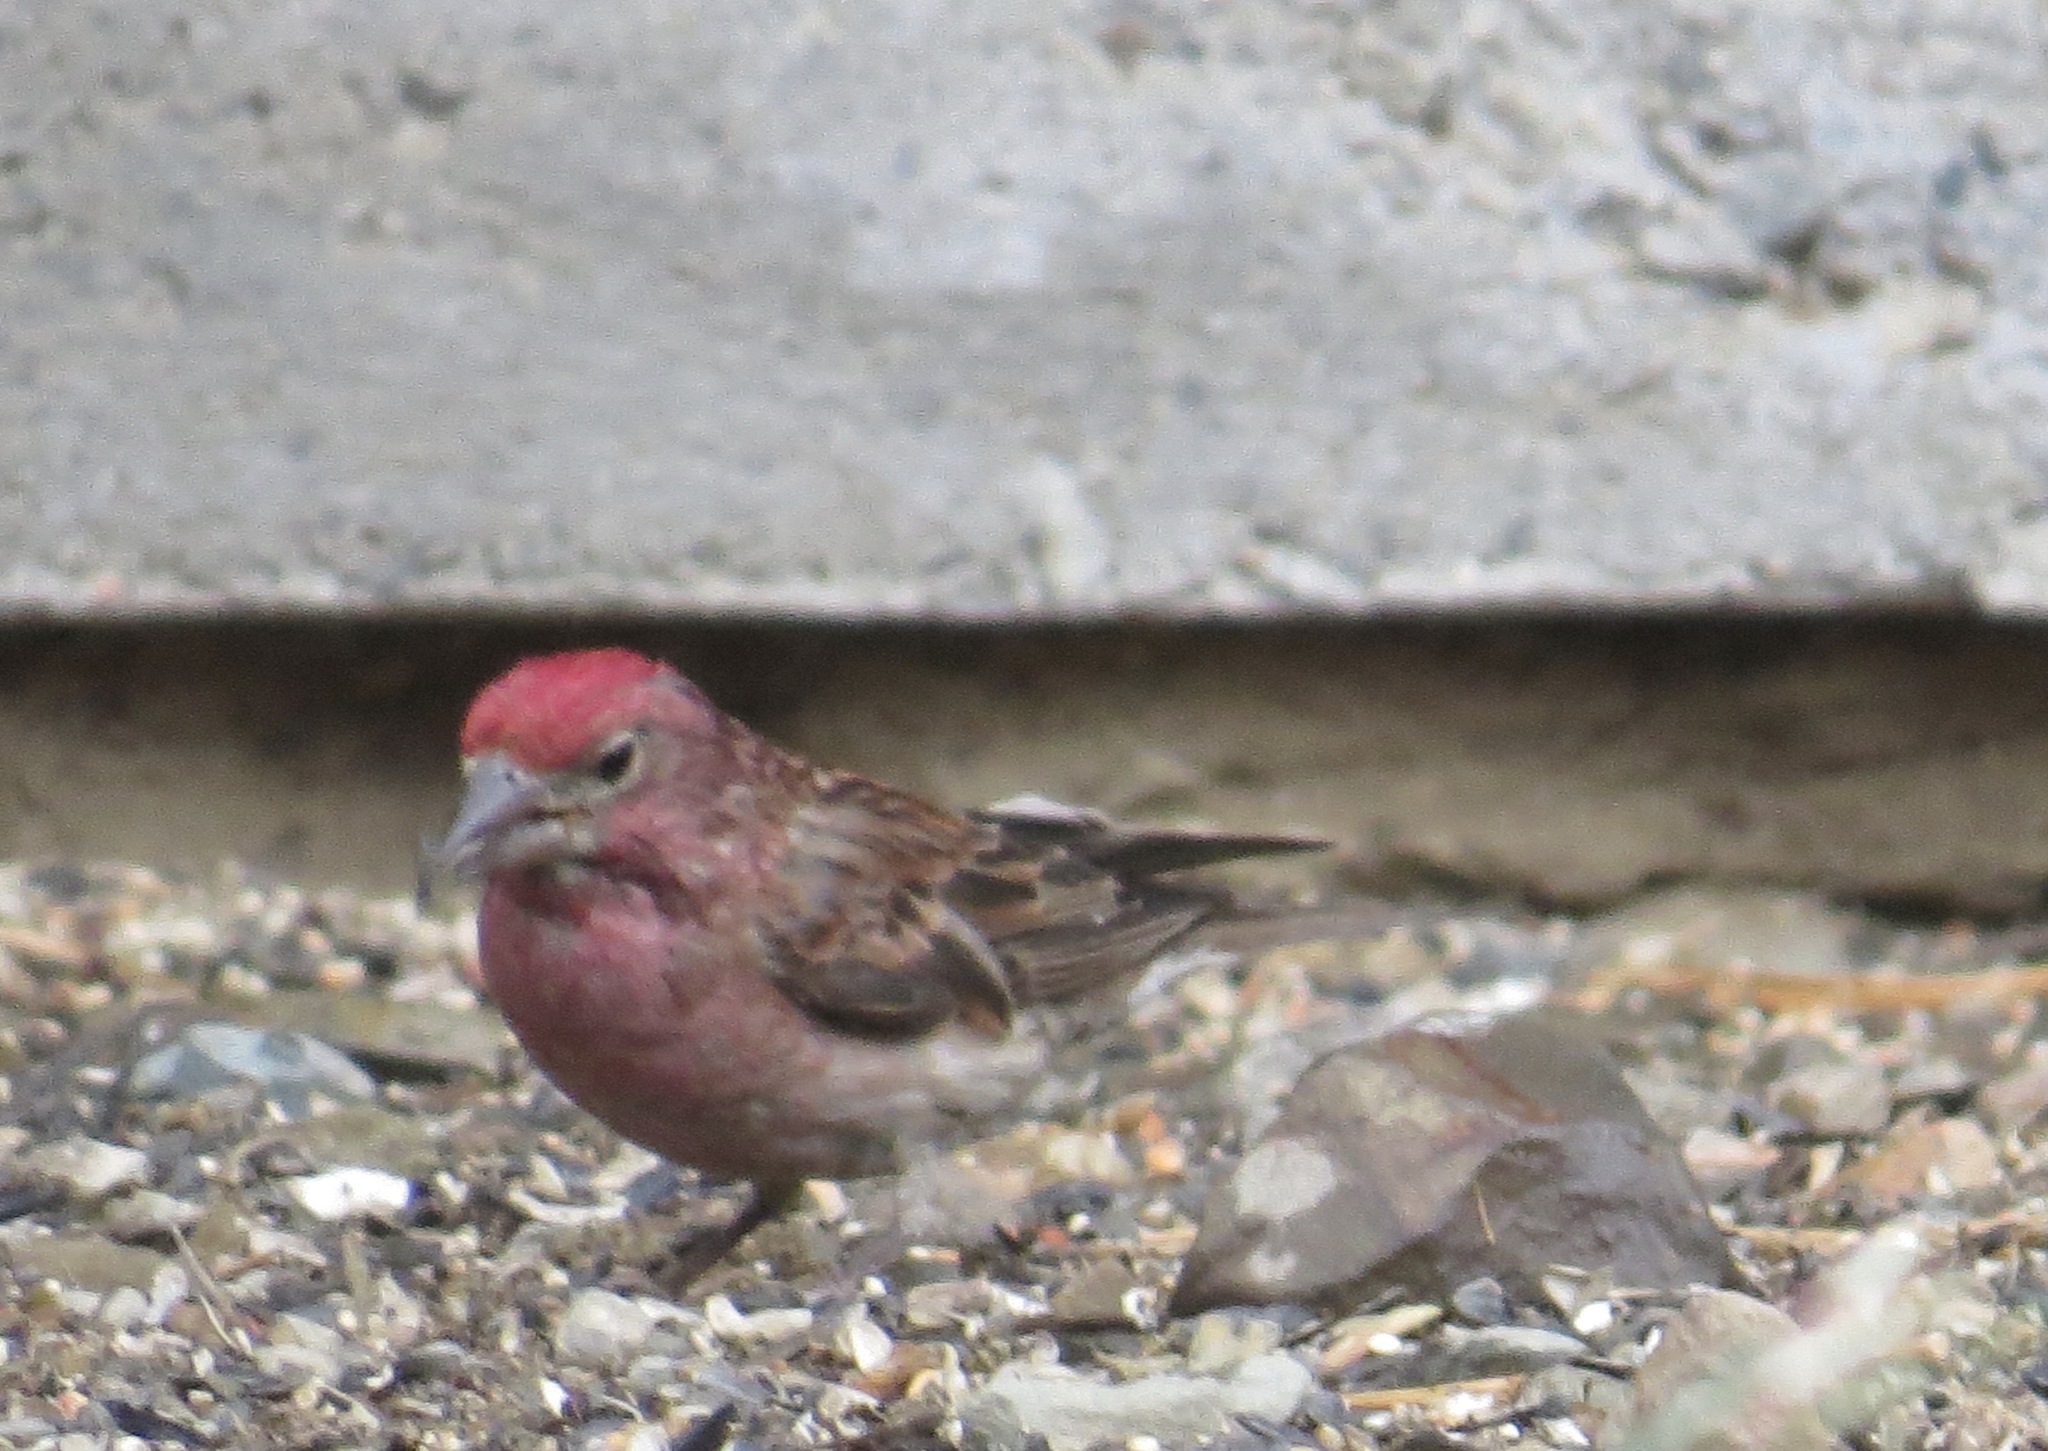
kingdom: Animalia
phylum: Chordata
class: Aves
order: Passeriformes
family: Fringillidae
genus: Haemorhous
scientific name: Haemorhous cassinii
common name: Cassin's finch
